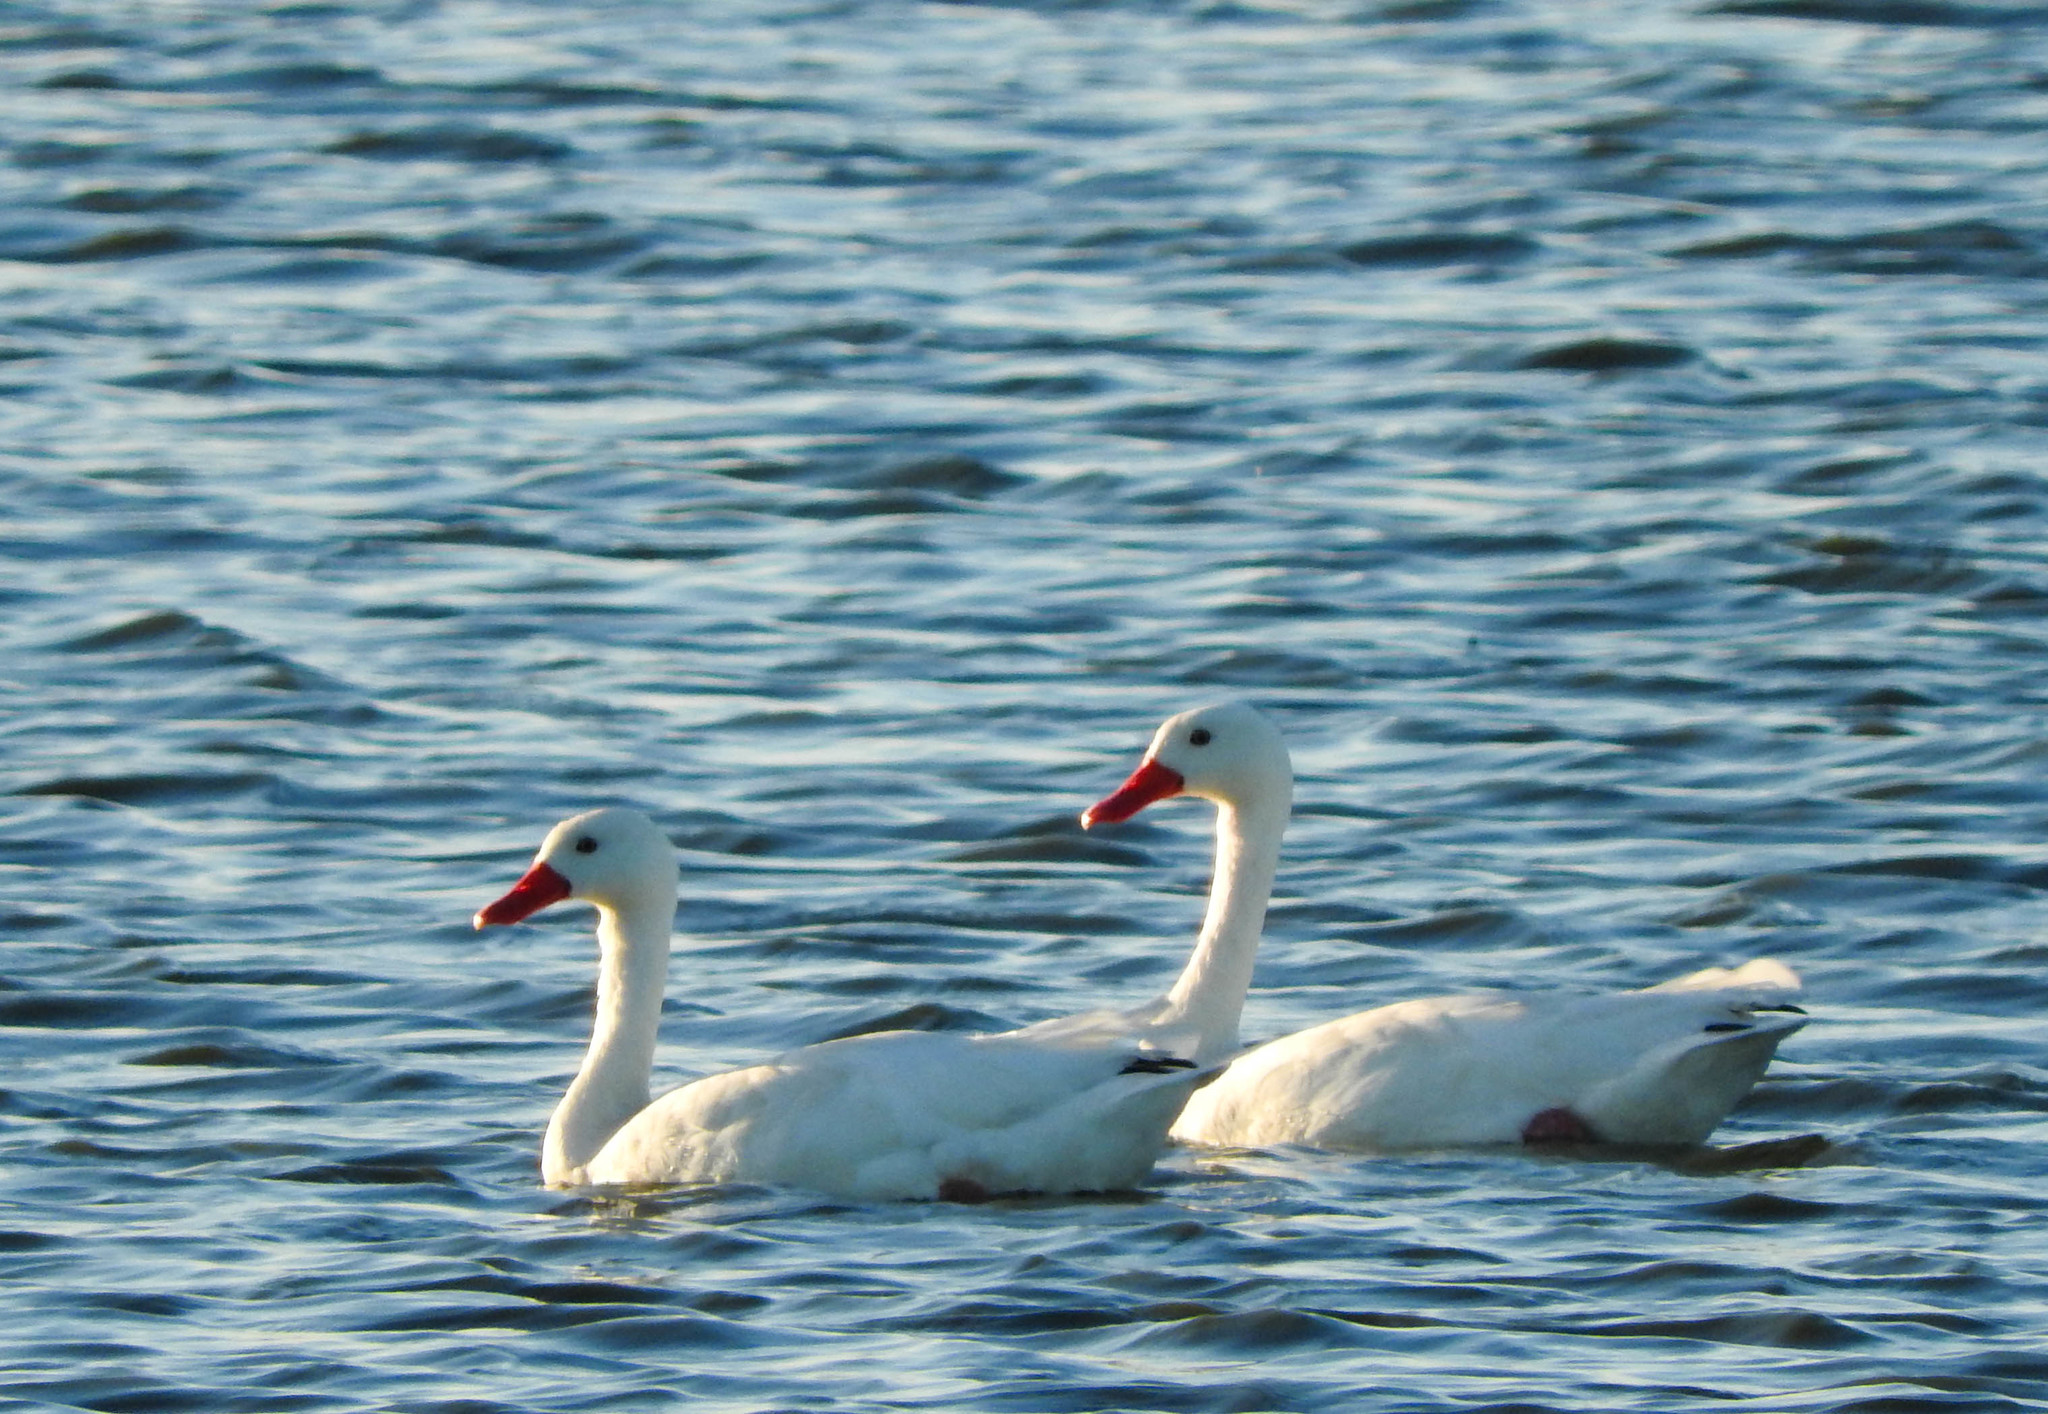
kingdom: Animalia
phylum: Chordata
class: Aves
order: Anseriformes
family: Anatidae
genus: Coscoroba
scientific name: Coscoroba coscoroba
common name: Coscoroba swan
